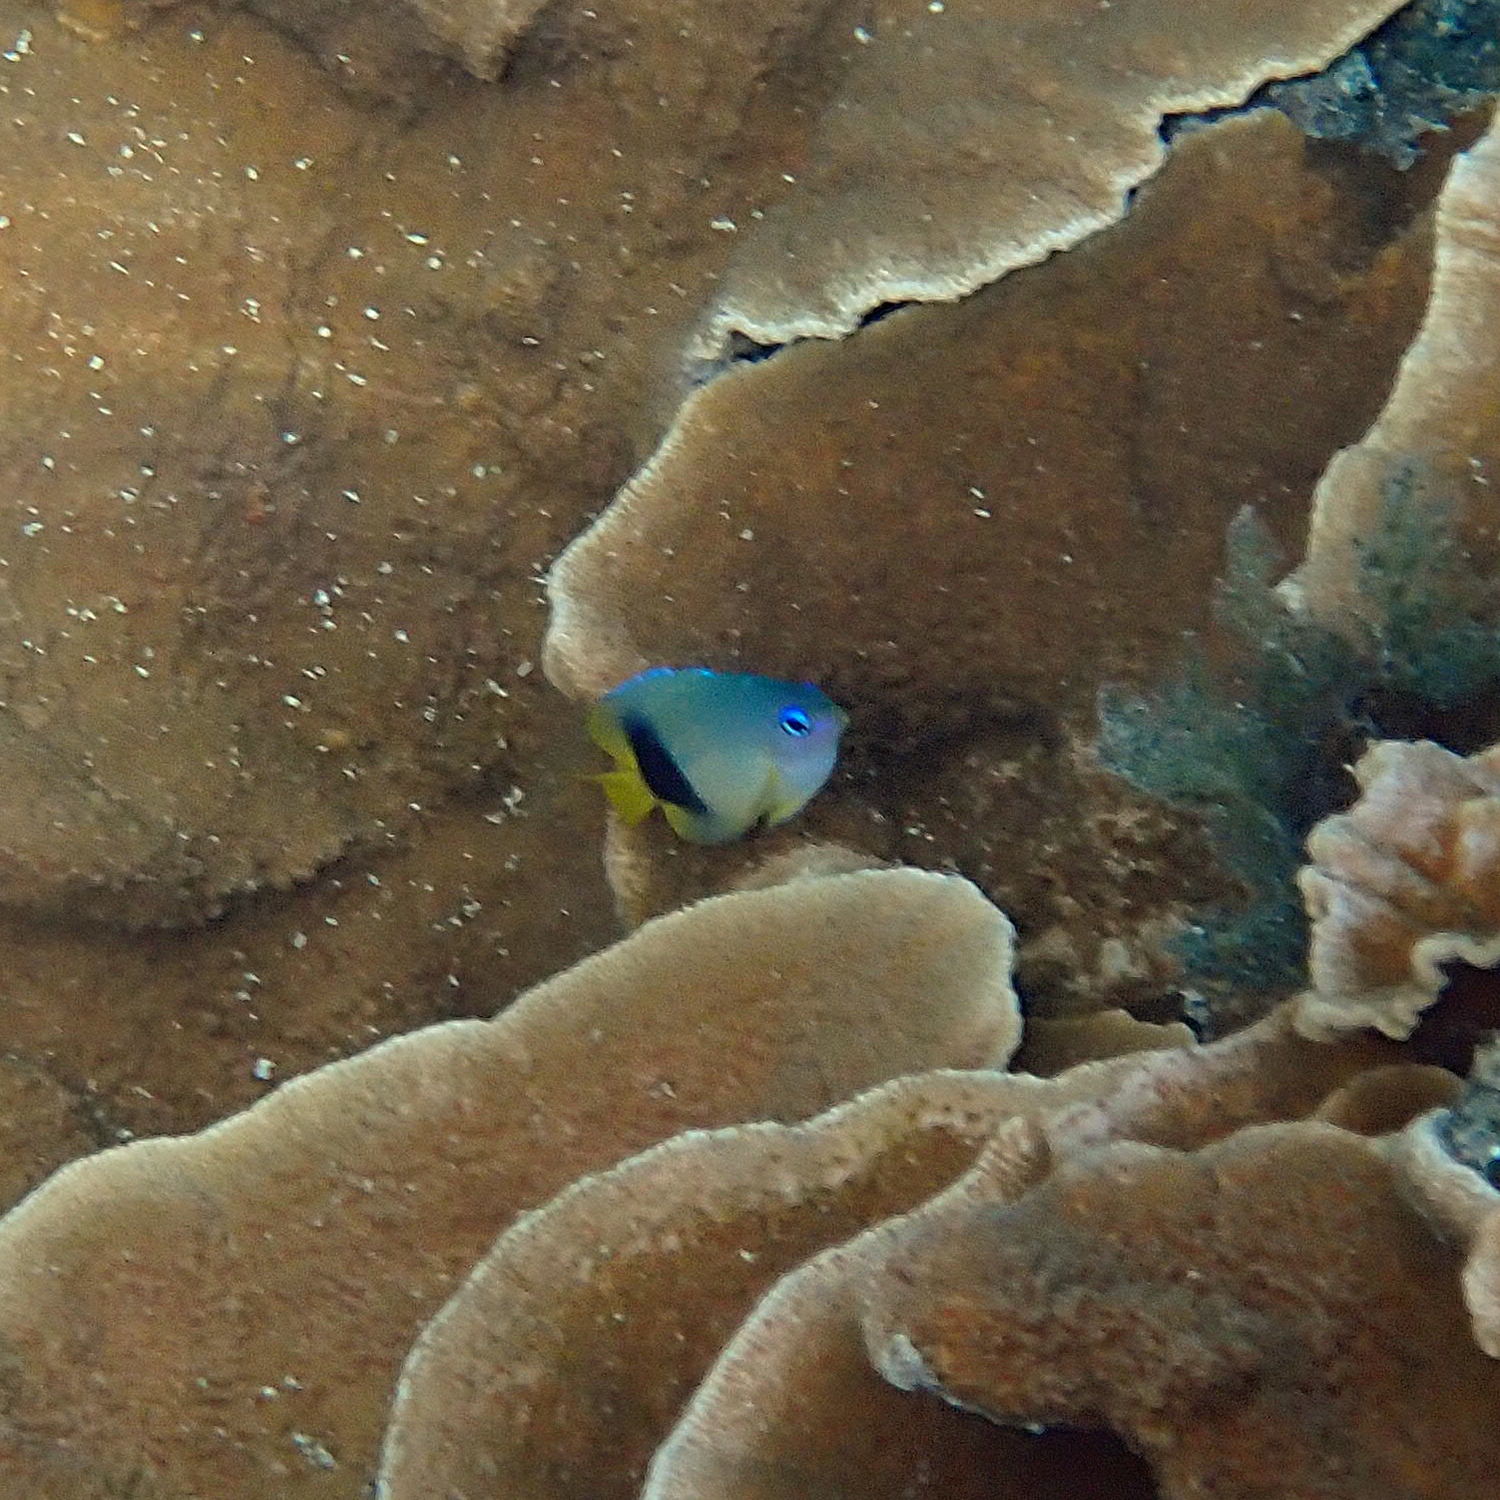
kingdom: Animalia
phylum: Chordata
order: Perciformes
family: Pomacentridae
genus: Plectroglyphidodon
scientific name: Plectroglyphidodon johnstonianus
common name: Johnston damsel
